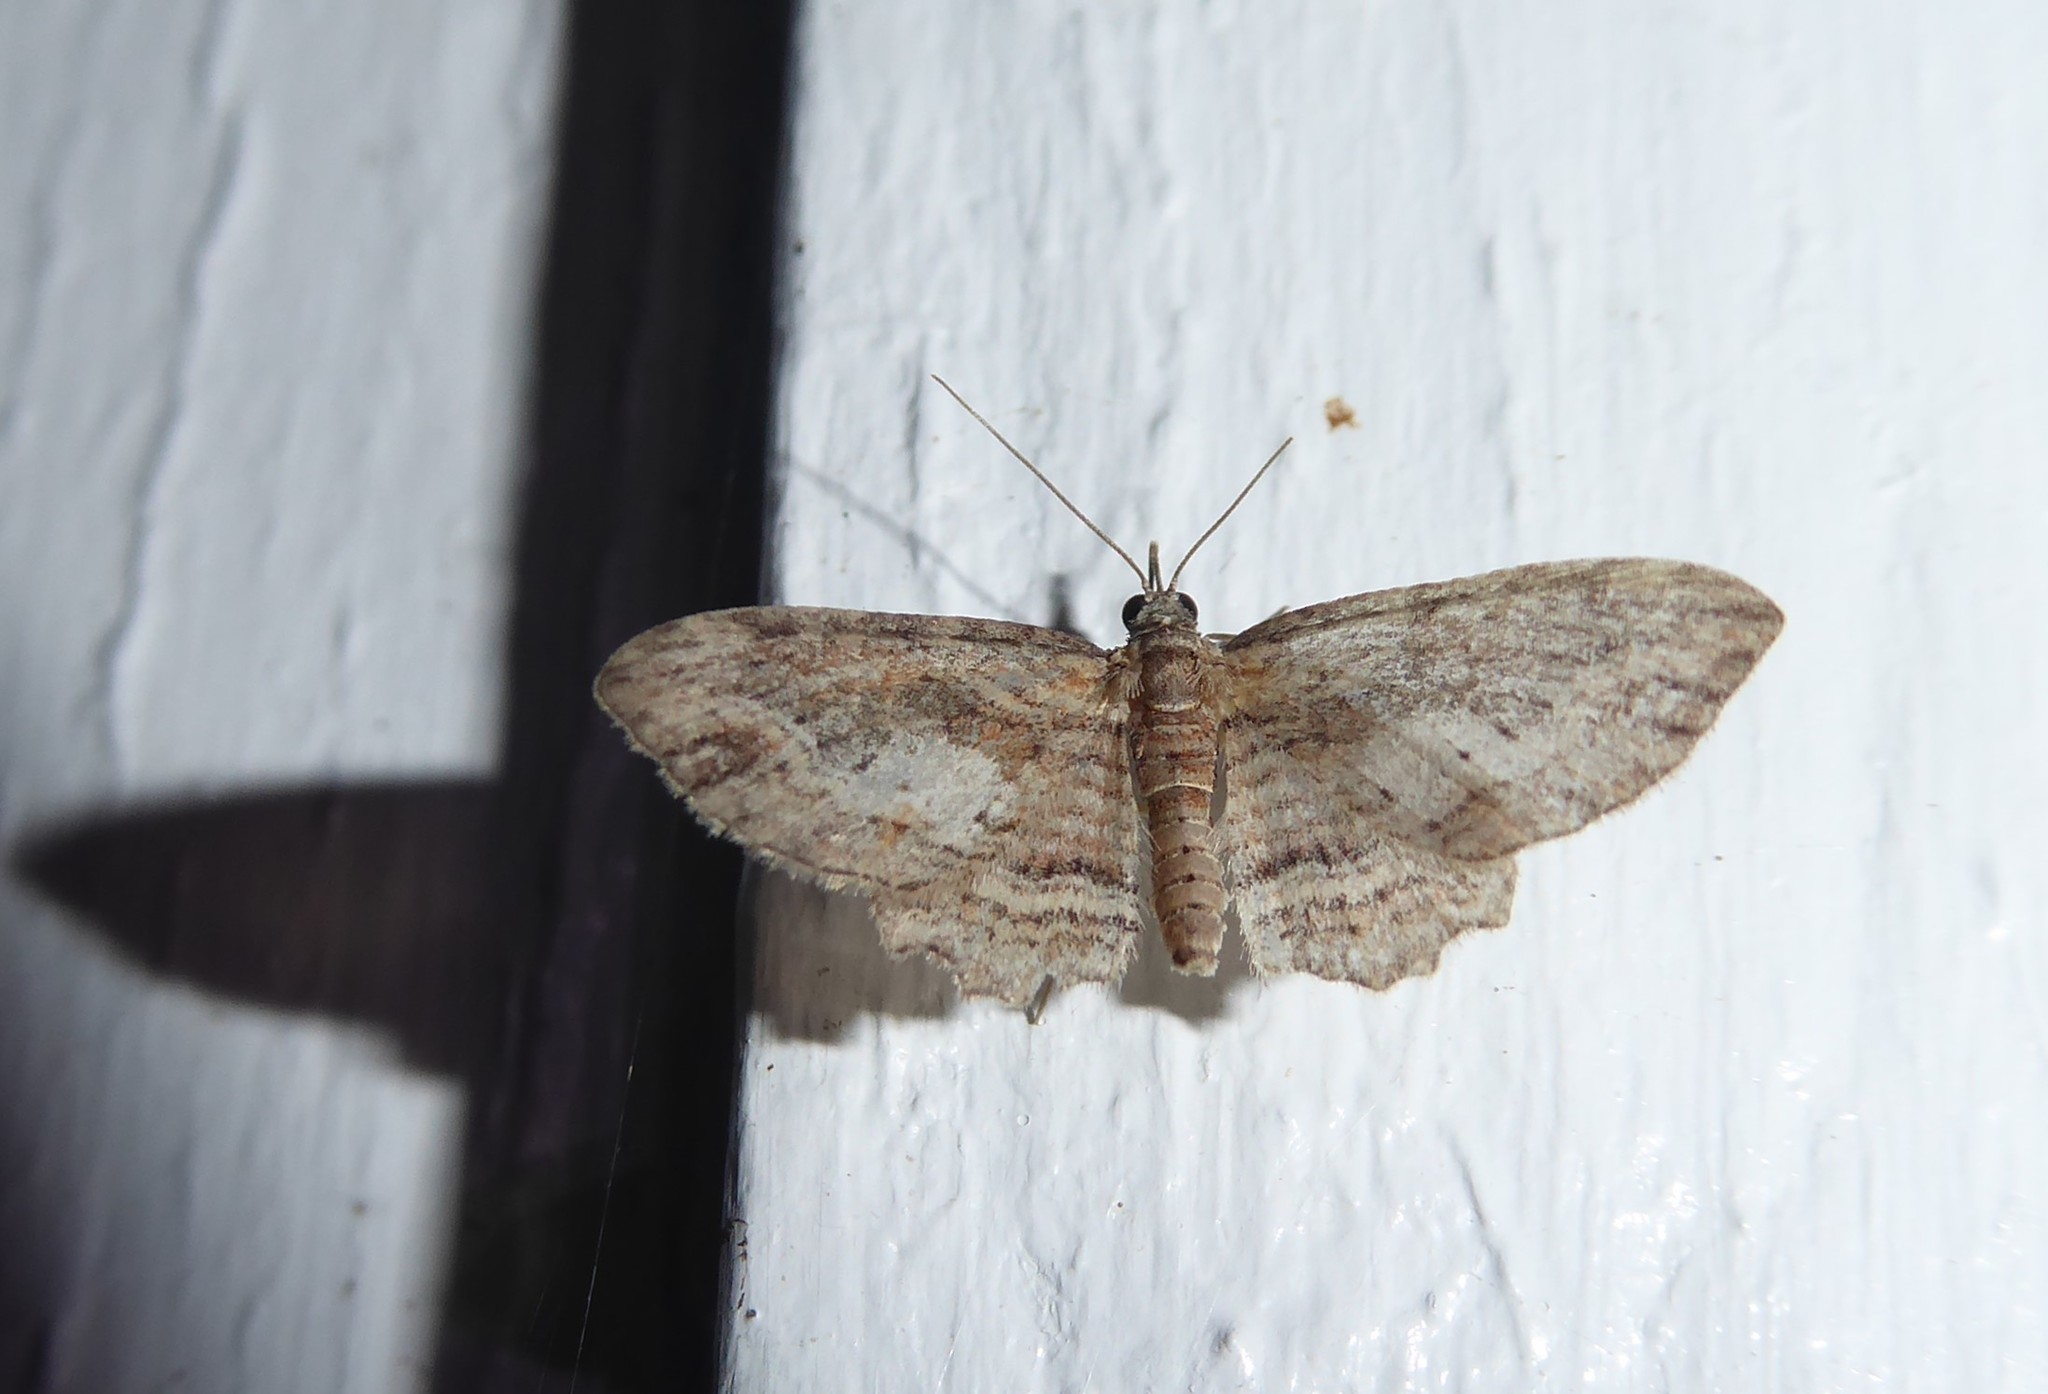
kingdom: Animalia
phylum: Arthropoda
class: Insecta
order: Lepidoptera
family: Geometridae
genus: Chloroclystis
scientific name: Chloroclystis filata
